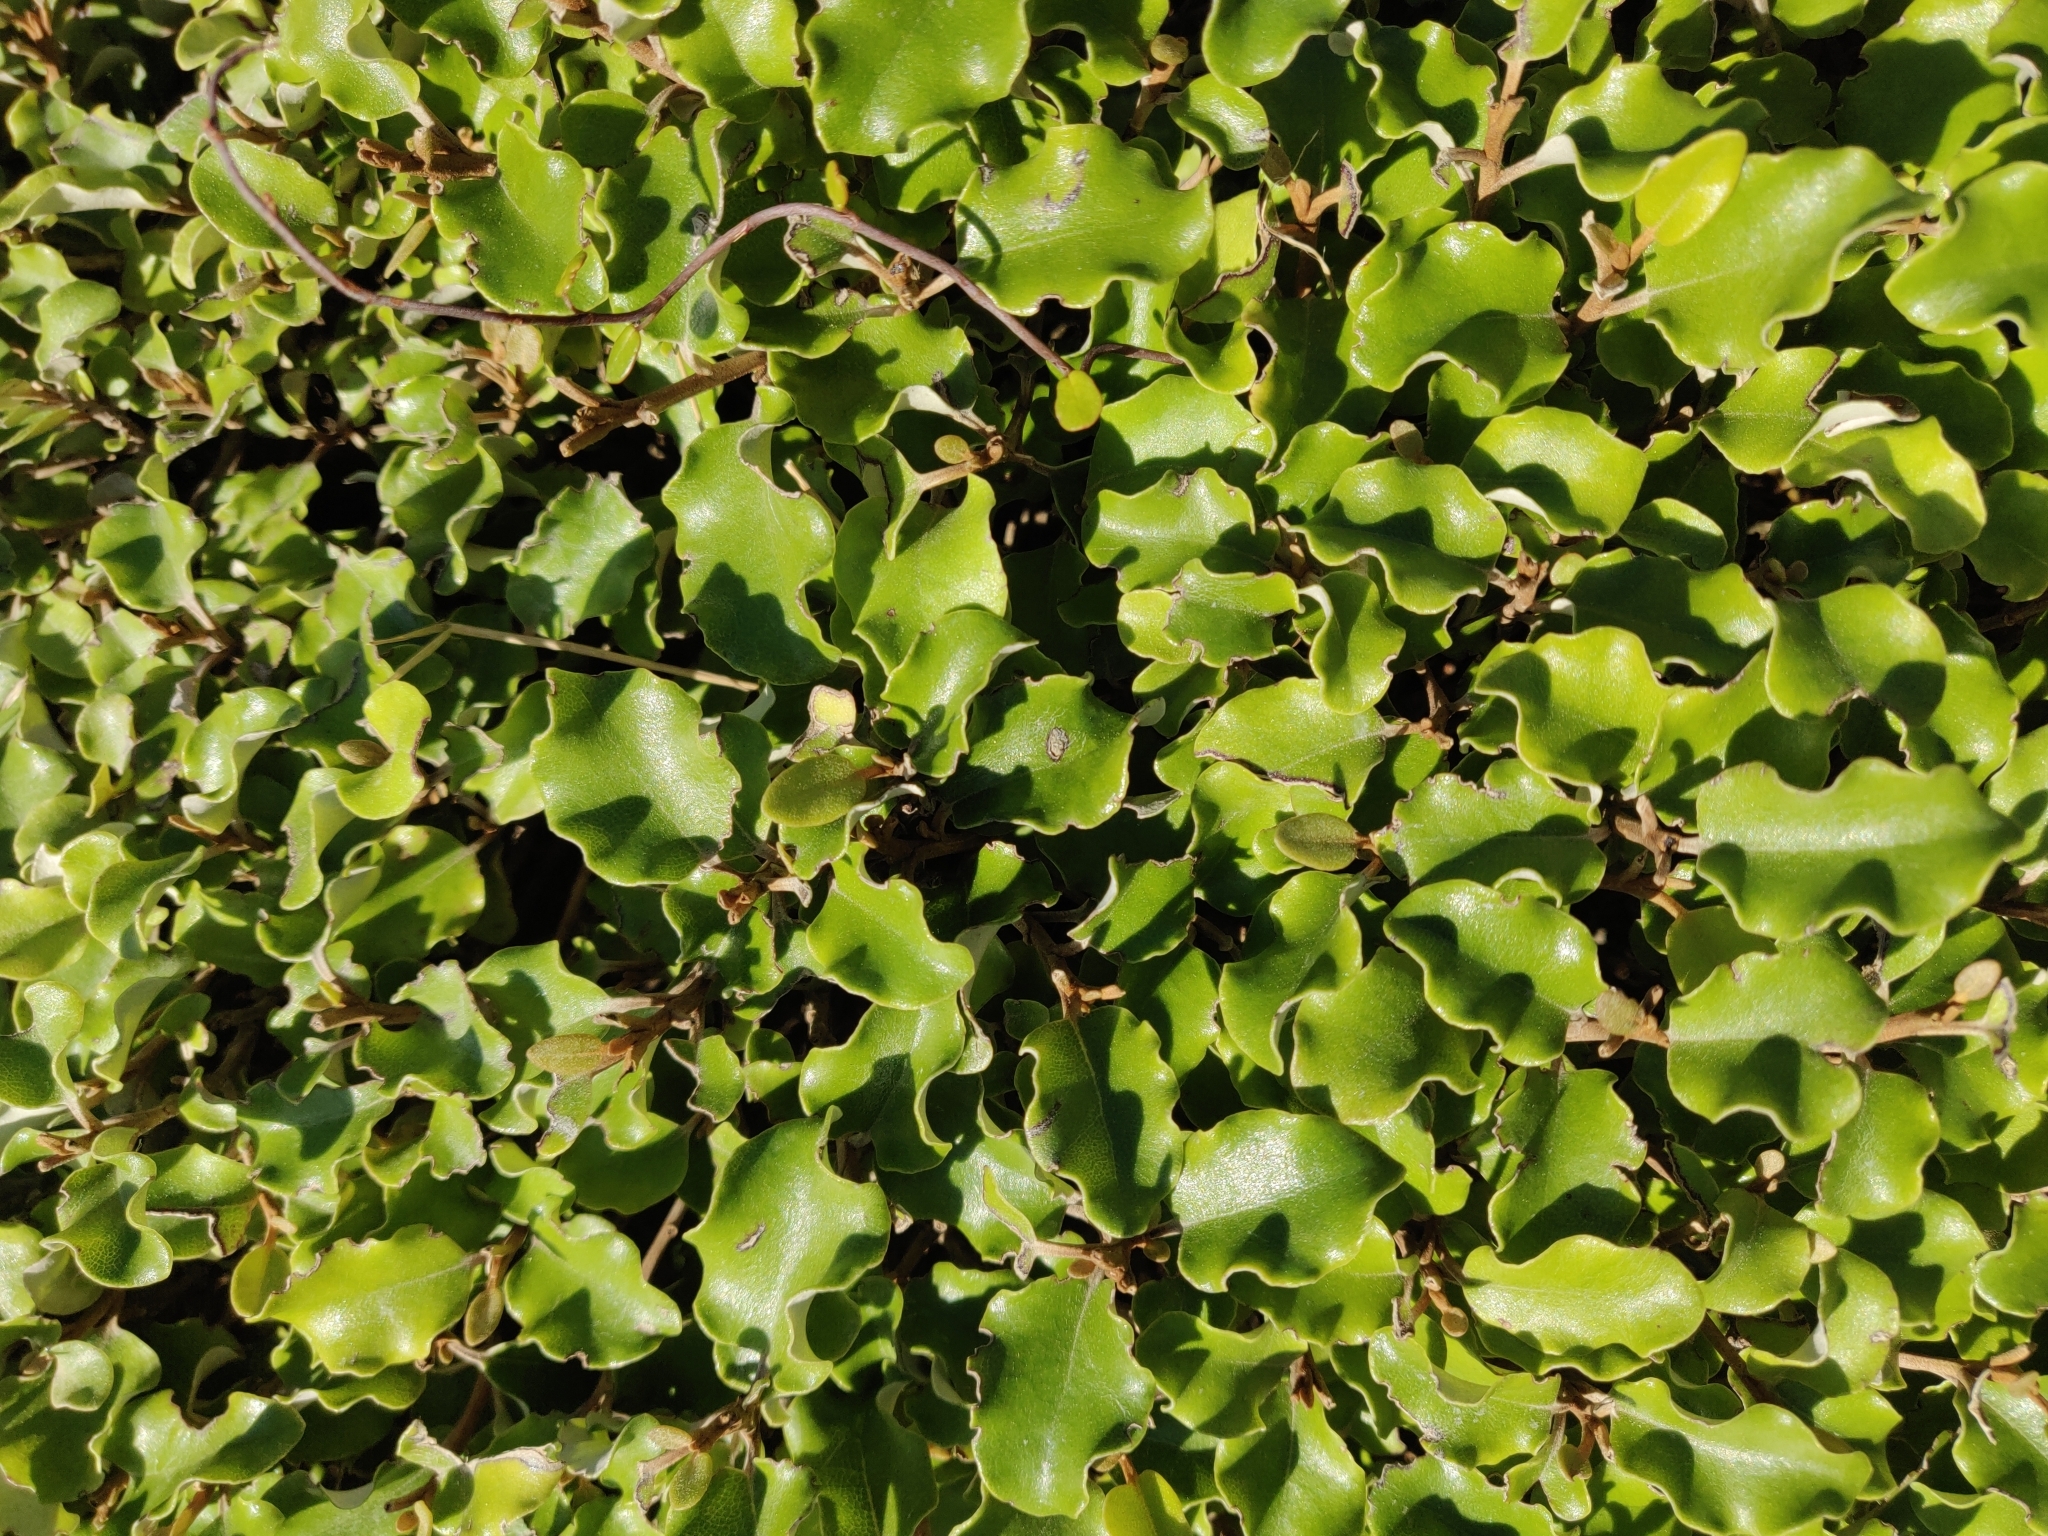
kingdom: Plantae
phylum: Tracheophyta
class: Magnoliopsida
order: Asterales
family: Asteraceae
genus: Olearia
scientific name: Olearia paniculata
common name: Akiraho
